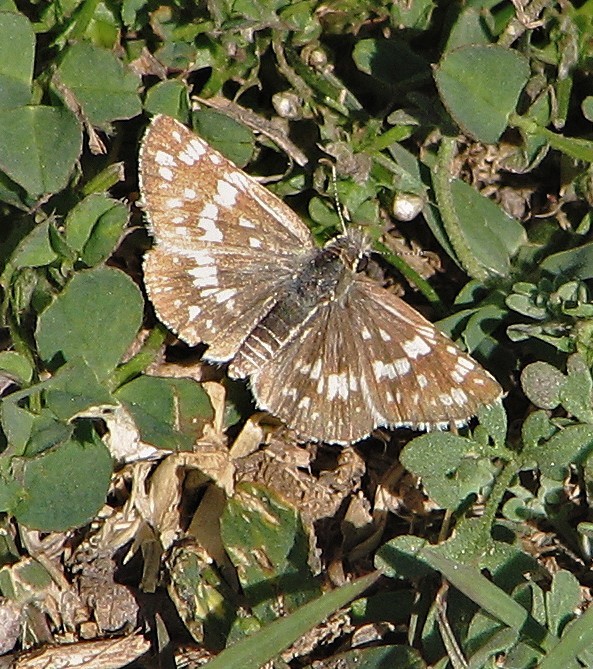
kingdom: Animalia
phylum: Arthropoda
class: Insecta
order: Lepidoptera
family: Hesperiidae
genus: Burnsius
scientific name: Burnsius orcynoides
